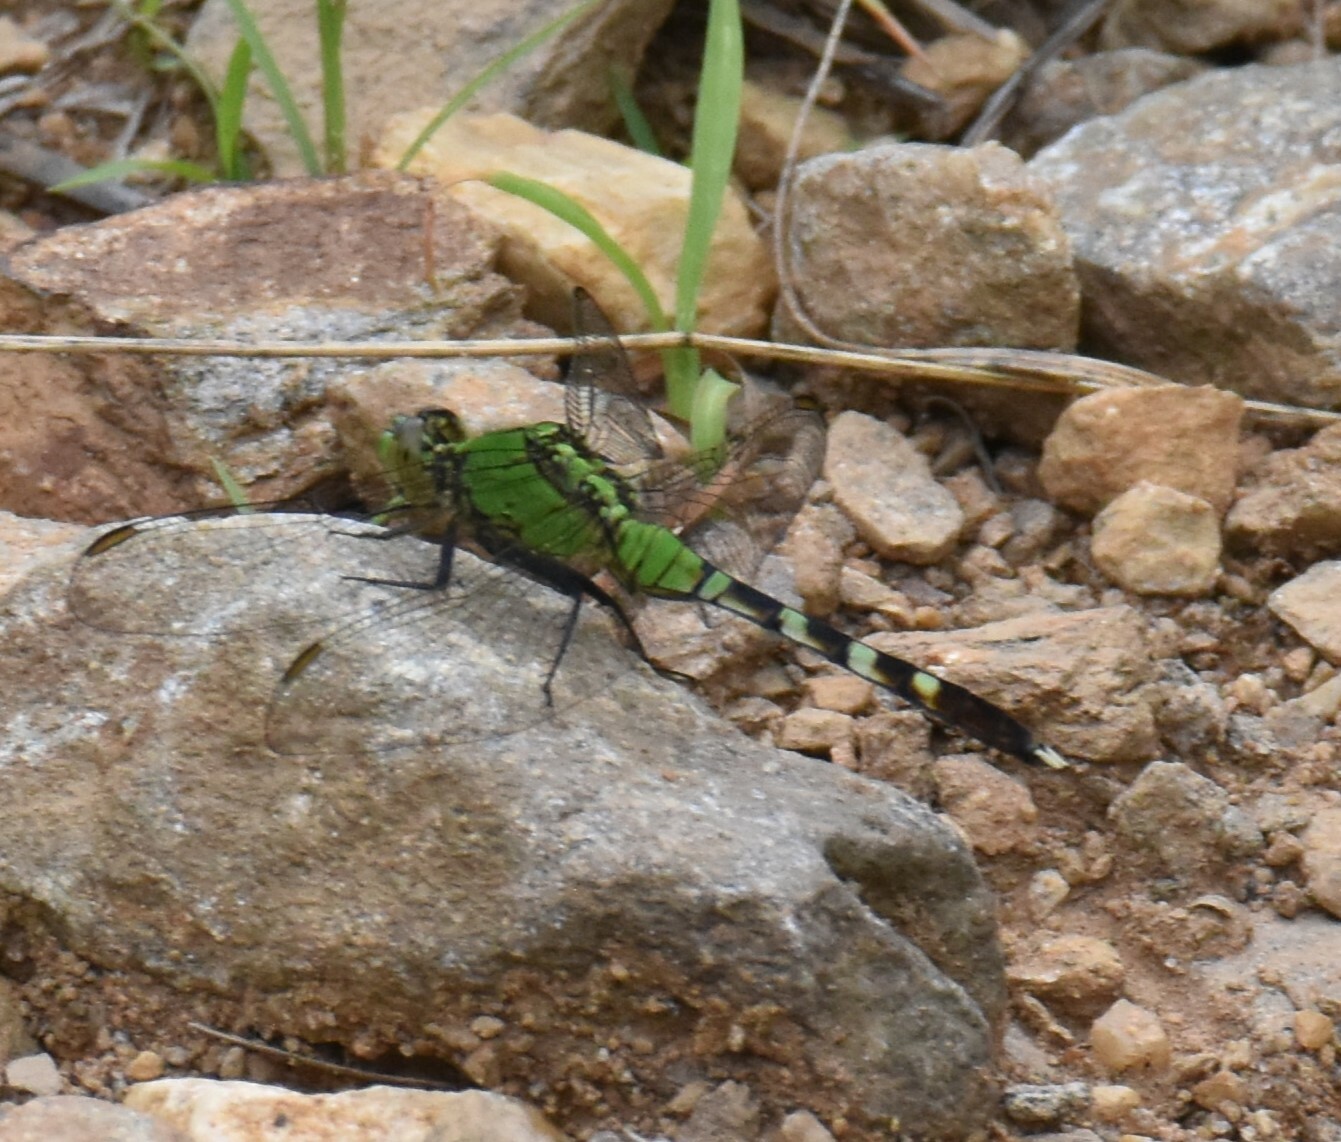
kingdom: Animalia
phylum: Arthropoda
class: Insecta
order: Odonata
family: Libellulidae
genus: Erythemis
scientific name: Erythemis simplicicollis
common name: Eastern pondhawk
